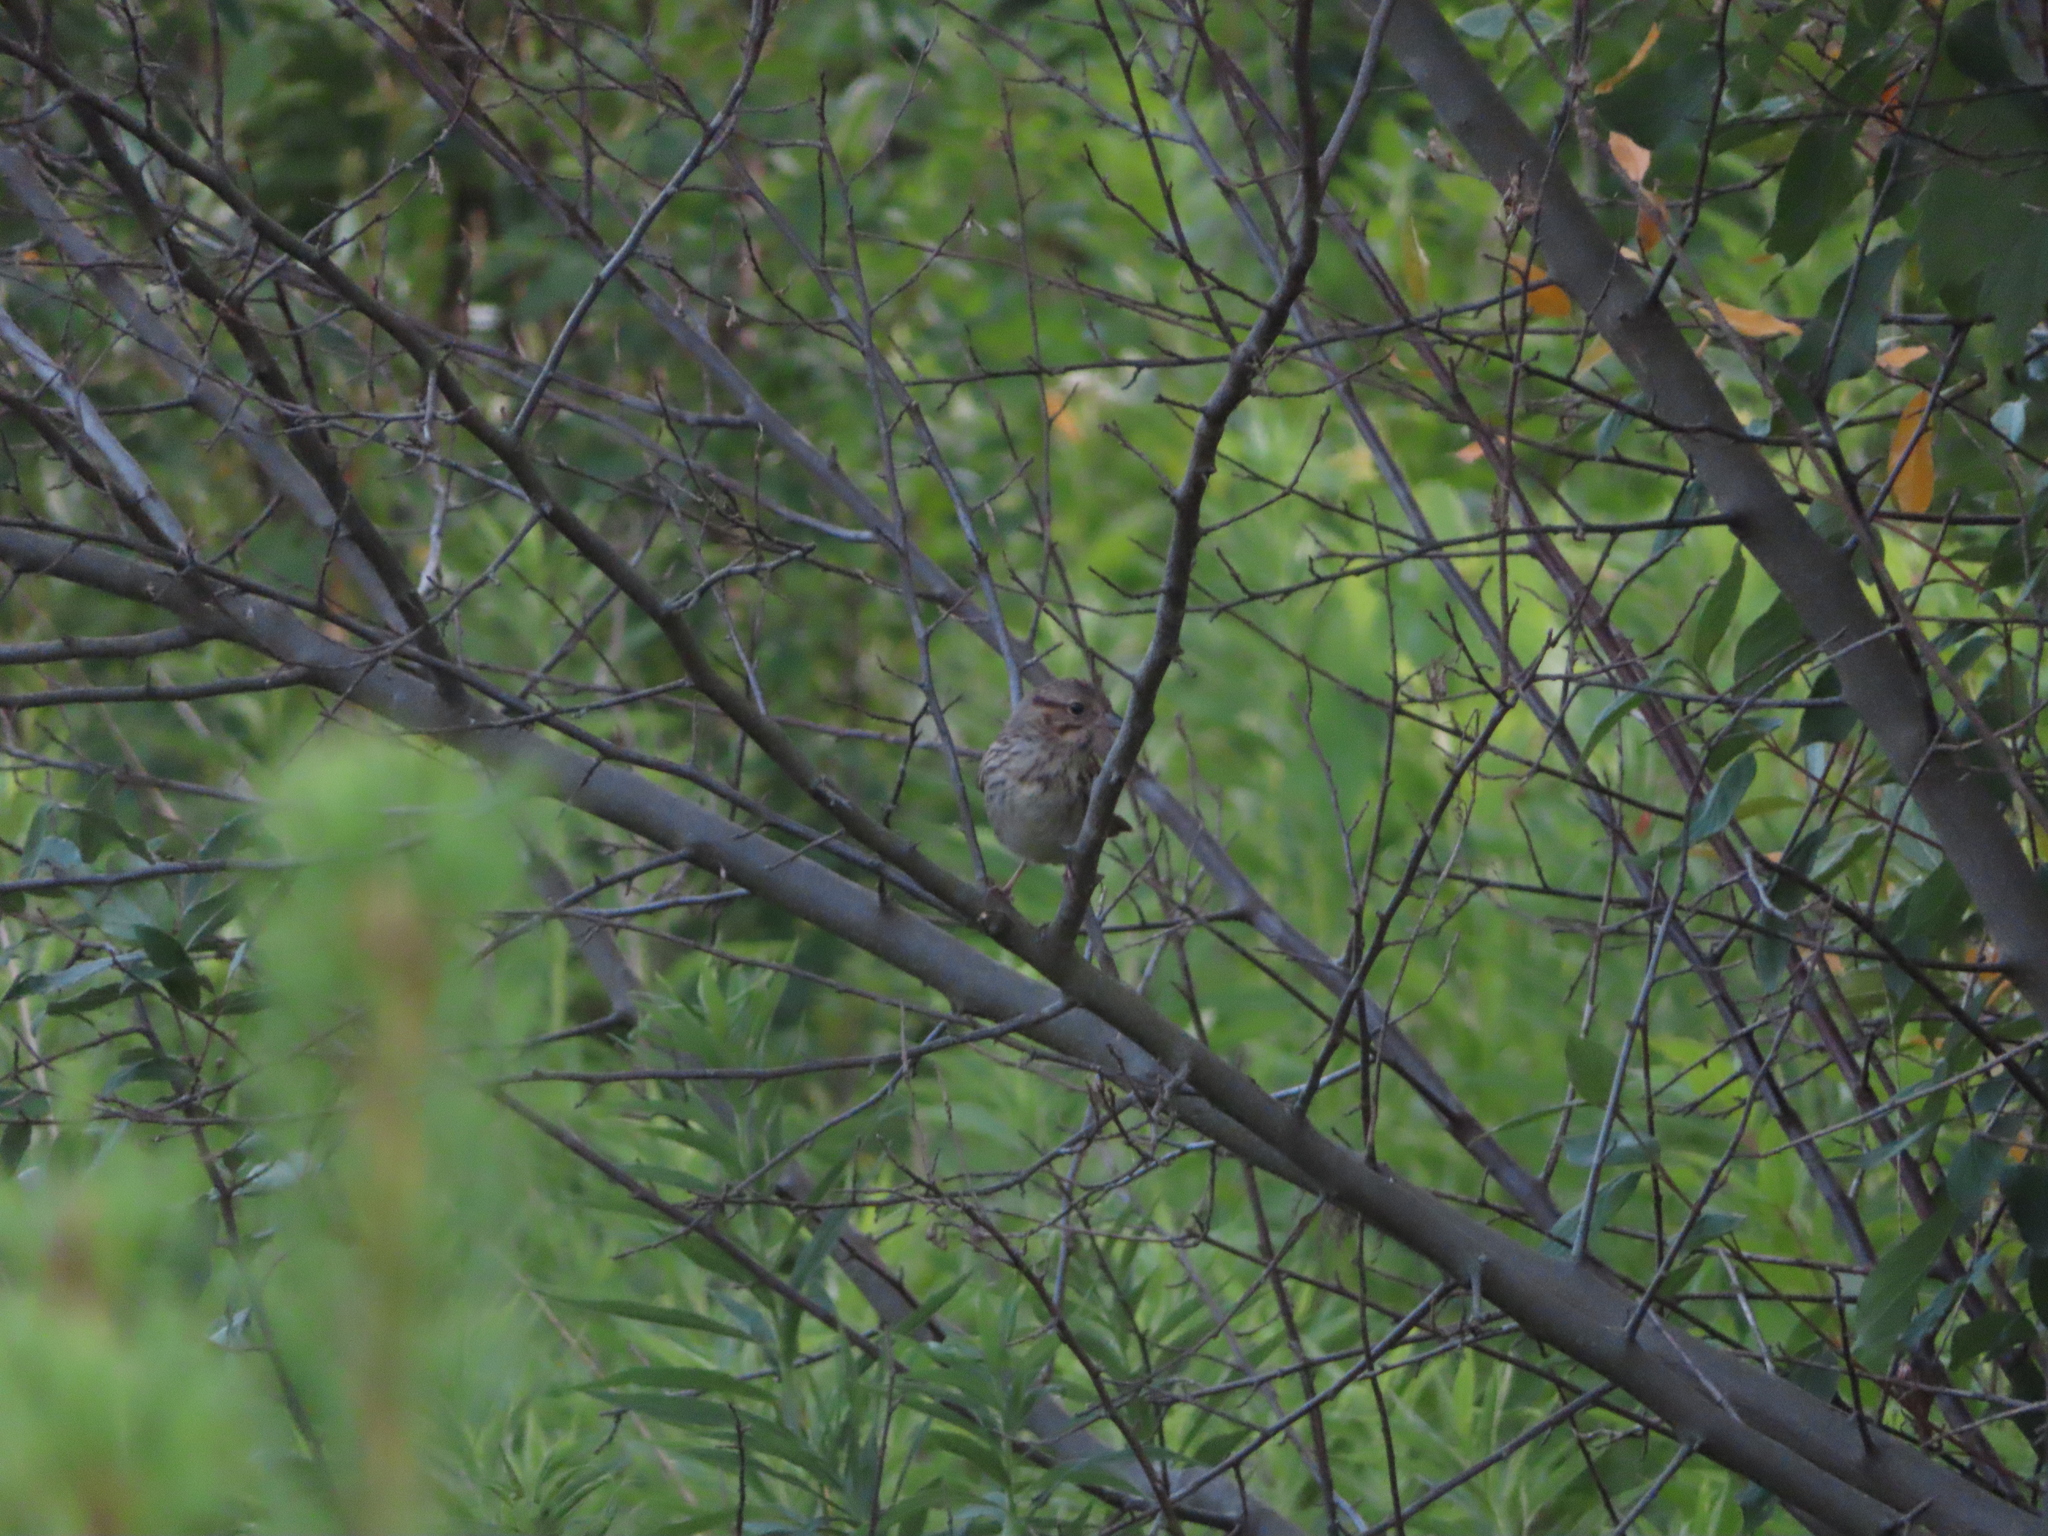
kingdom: Animalia
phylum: Chordata
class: Aves
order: Passeriformes
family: Passerellidae
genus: Melospiza
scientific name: Melospiza lincolnii
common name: Lincoln's sparrow
